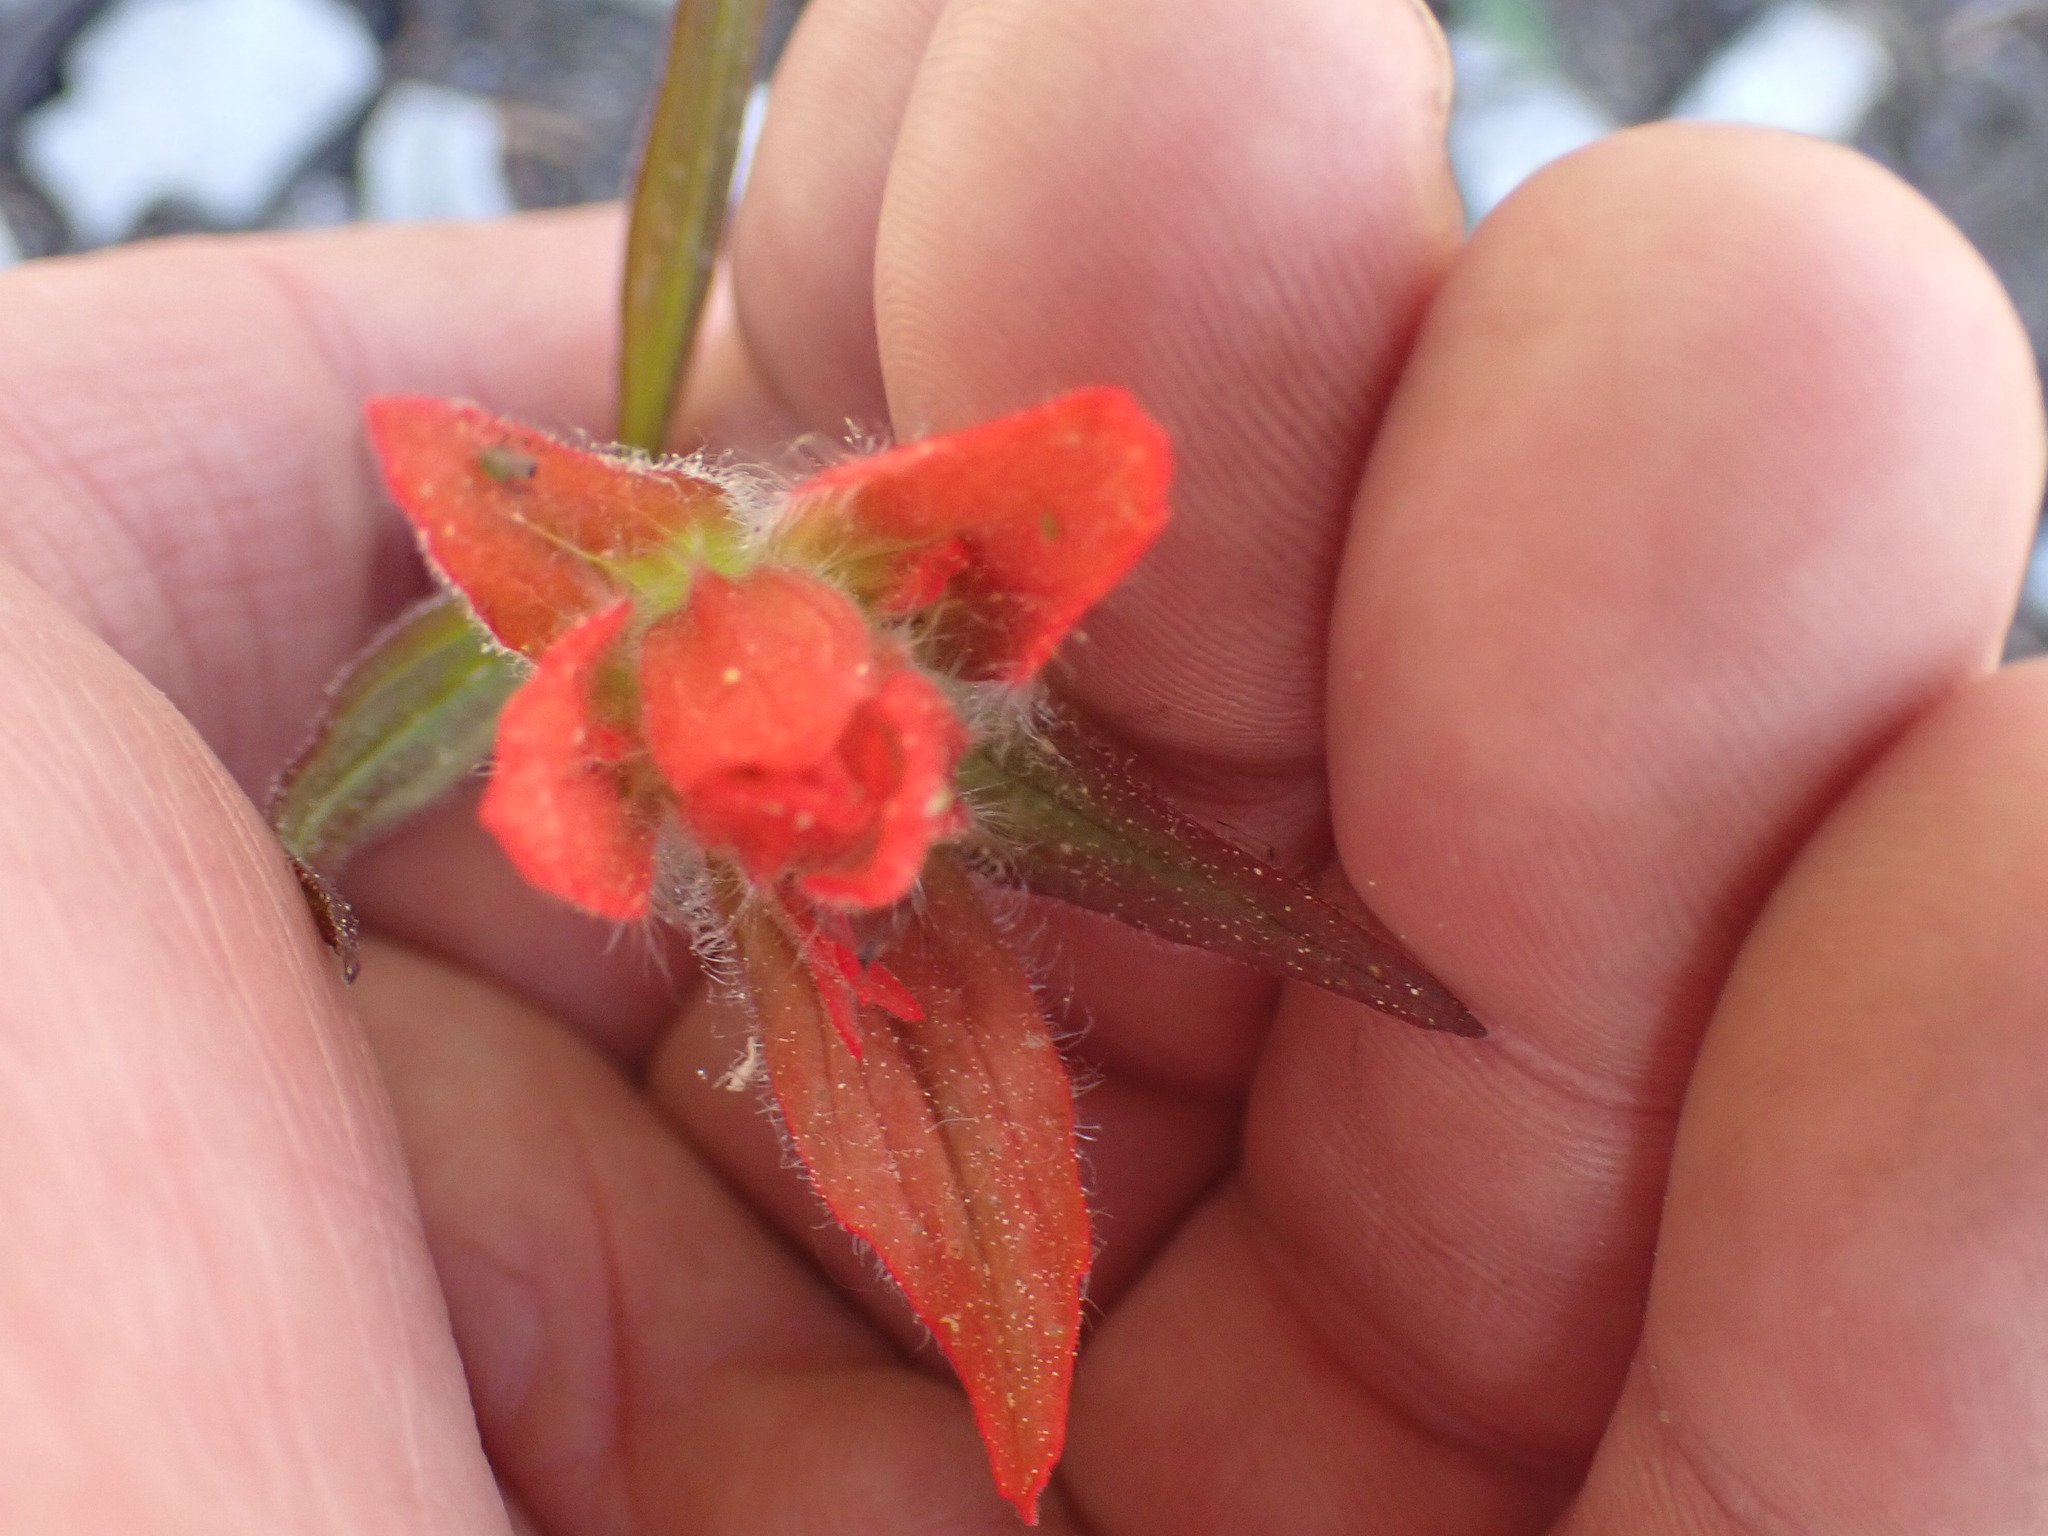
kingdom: Plantae
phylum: Tracheophyta
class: Magnoliopsida
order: Lamiales
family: Orobanchaceae
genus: Castilleja
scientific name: Castilleja miniata
